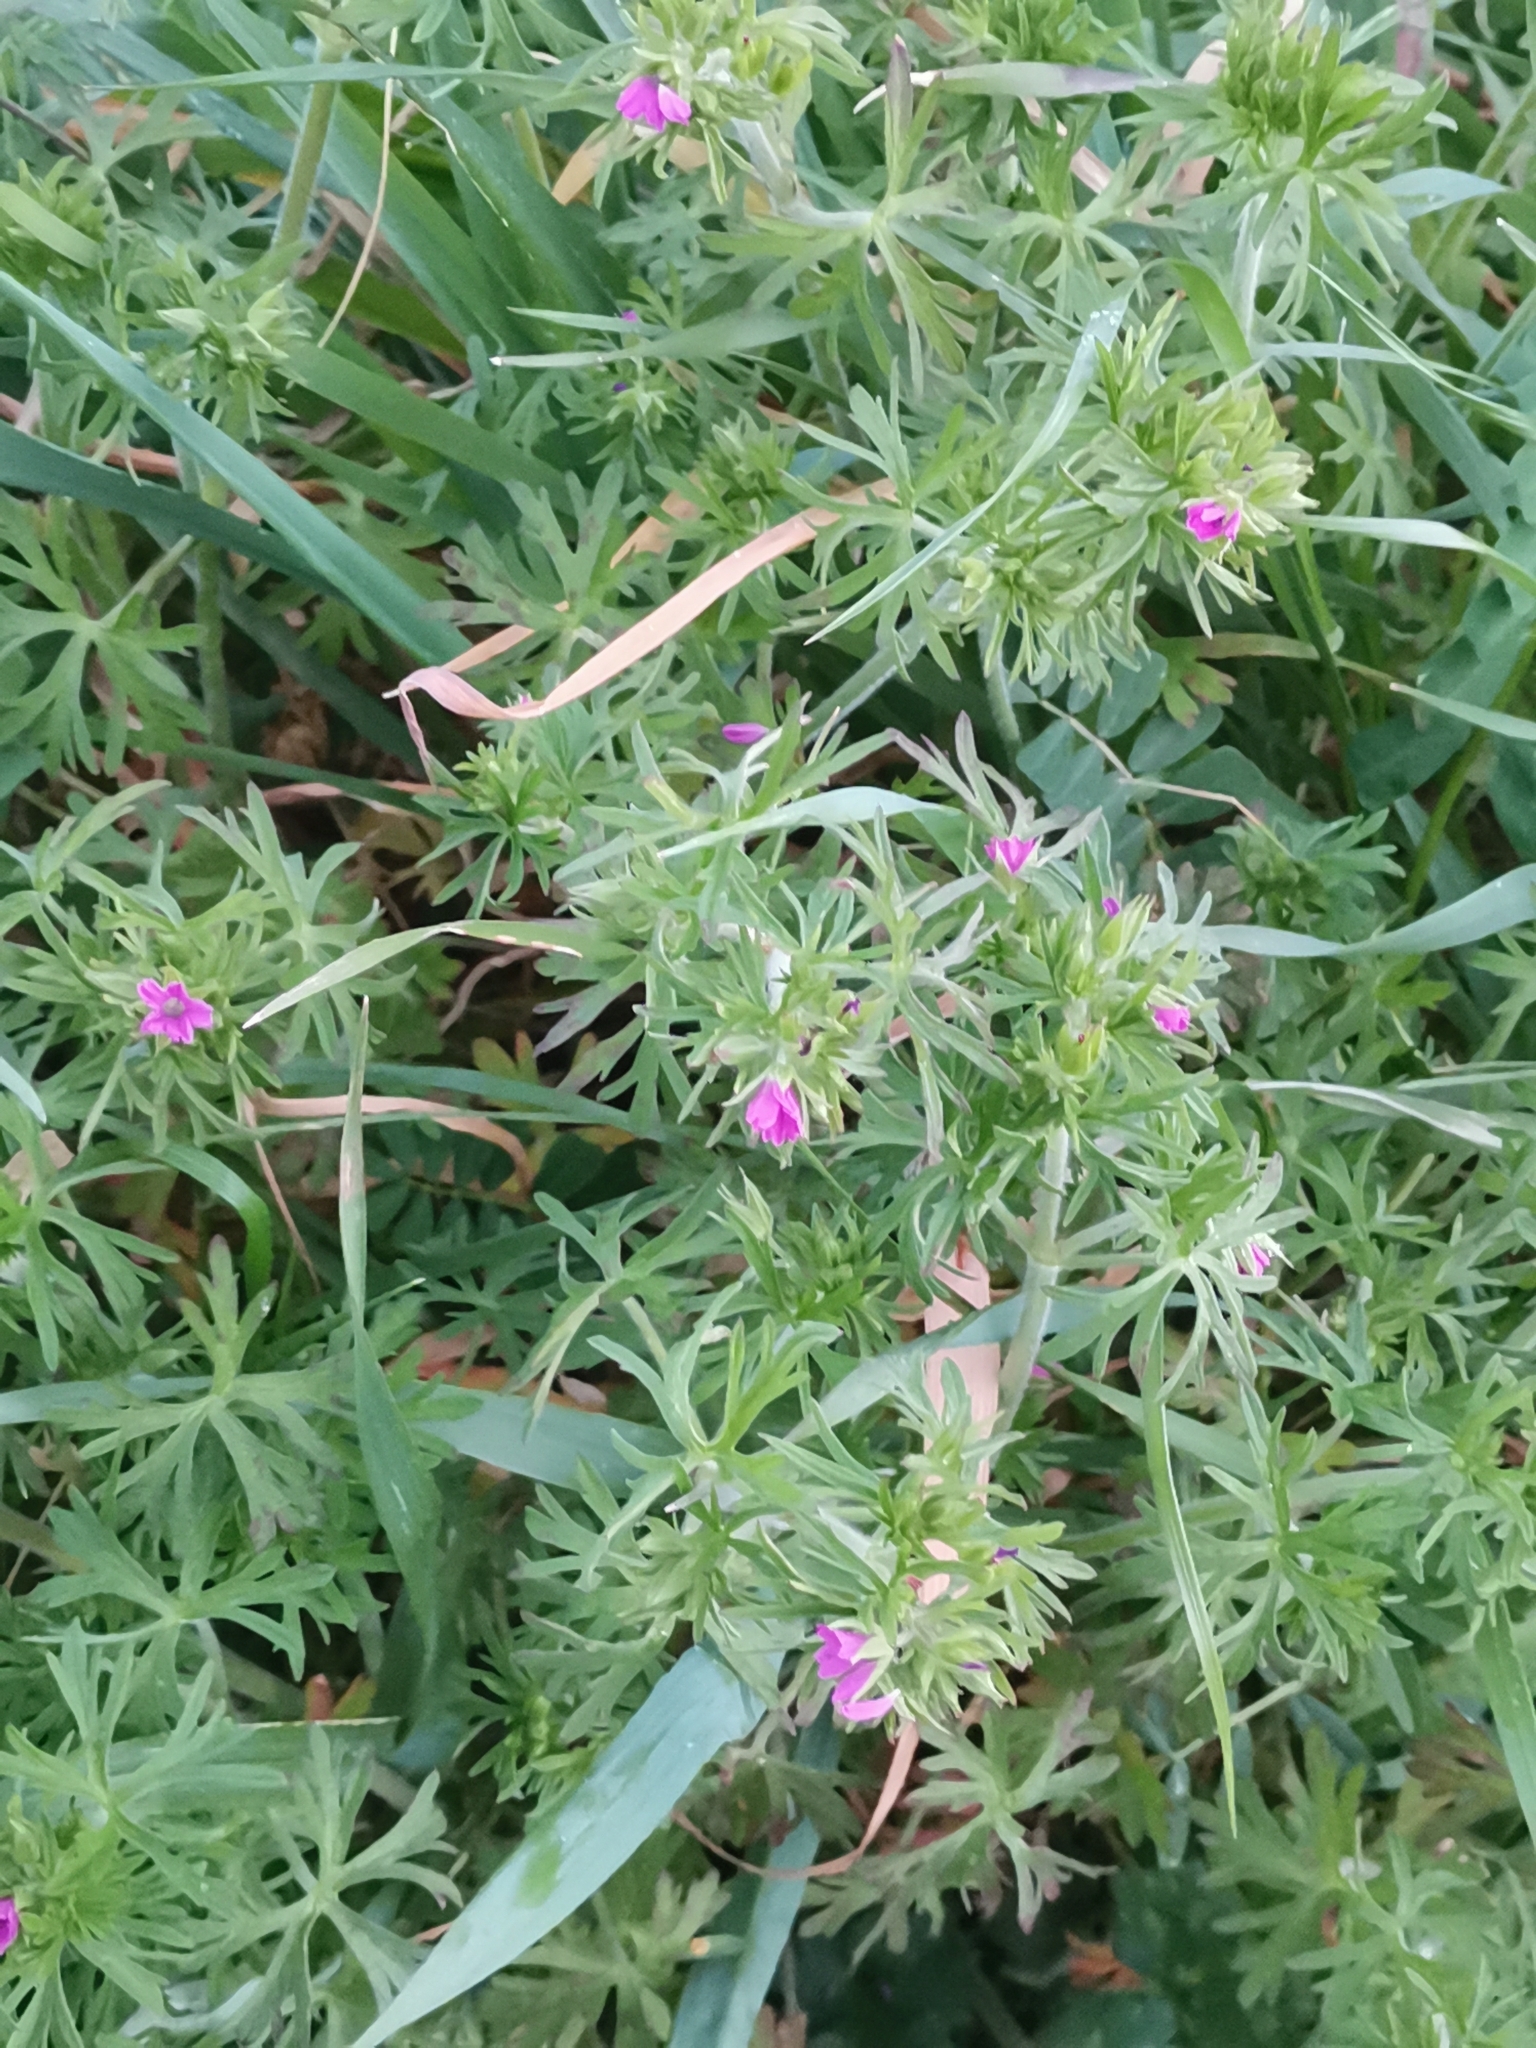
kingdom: Plantae
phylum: Tracheophyta
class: Magnoliopsida
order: Geraniales
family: Geraniaceae
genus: Geranium
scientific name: Geranium dissectum
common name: Cut-leaved crane's-bill
